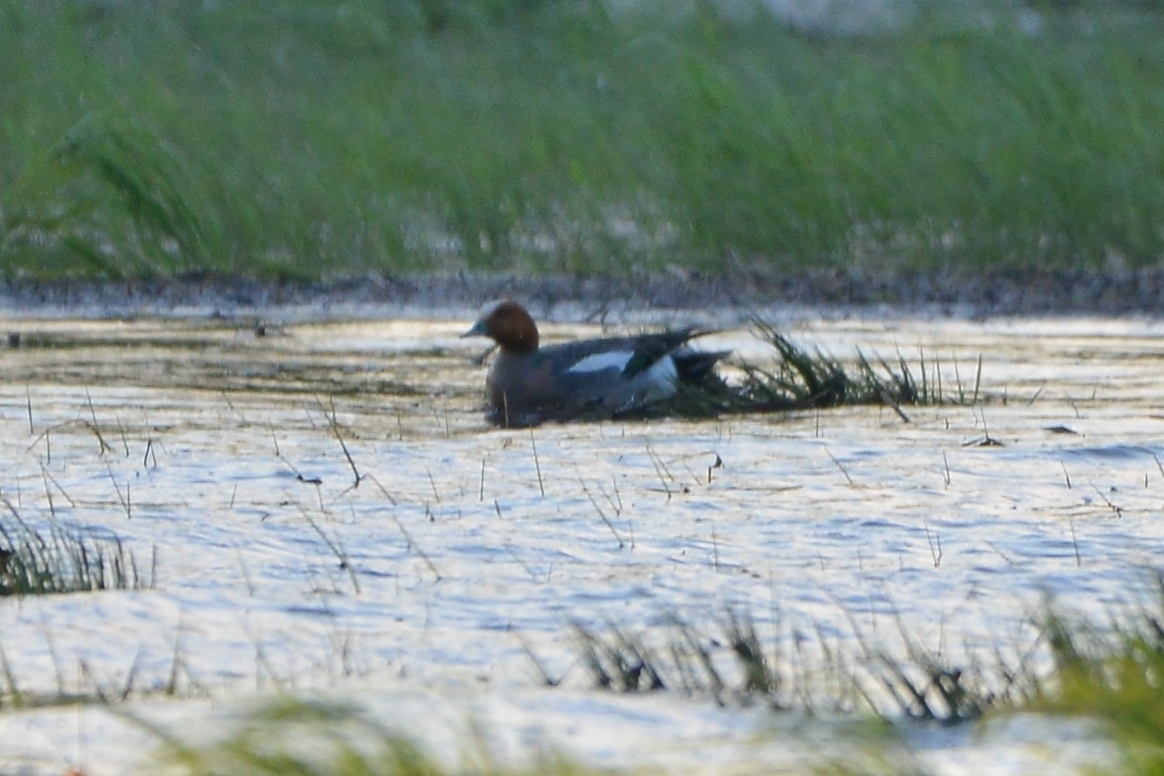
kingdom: Animalia
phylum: Chordata
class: Aves
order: Anseriformes
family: Anatidae
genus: Mareca
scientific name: Mareca penelope
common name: Eurasian wigeon
